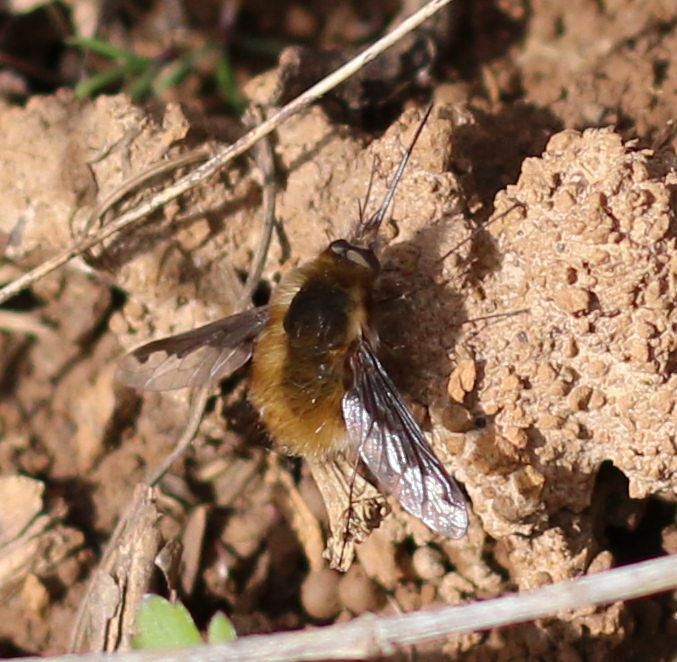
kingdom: Animalia
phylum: Arthropoda
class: Insecta
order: Diptera
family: Bombyliidae
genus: Bombylius
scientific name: Bombylius major
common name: Bee fly
